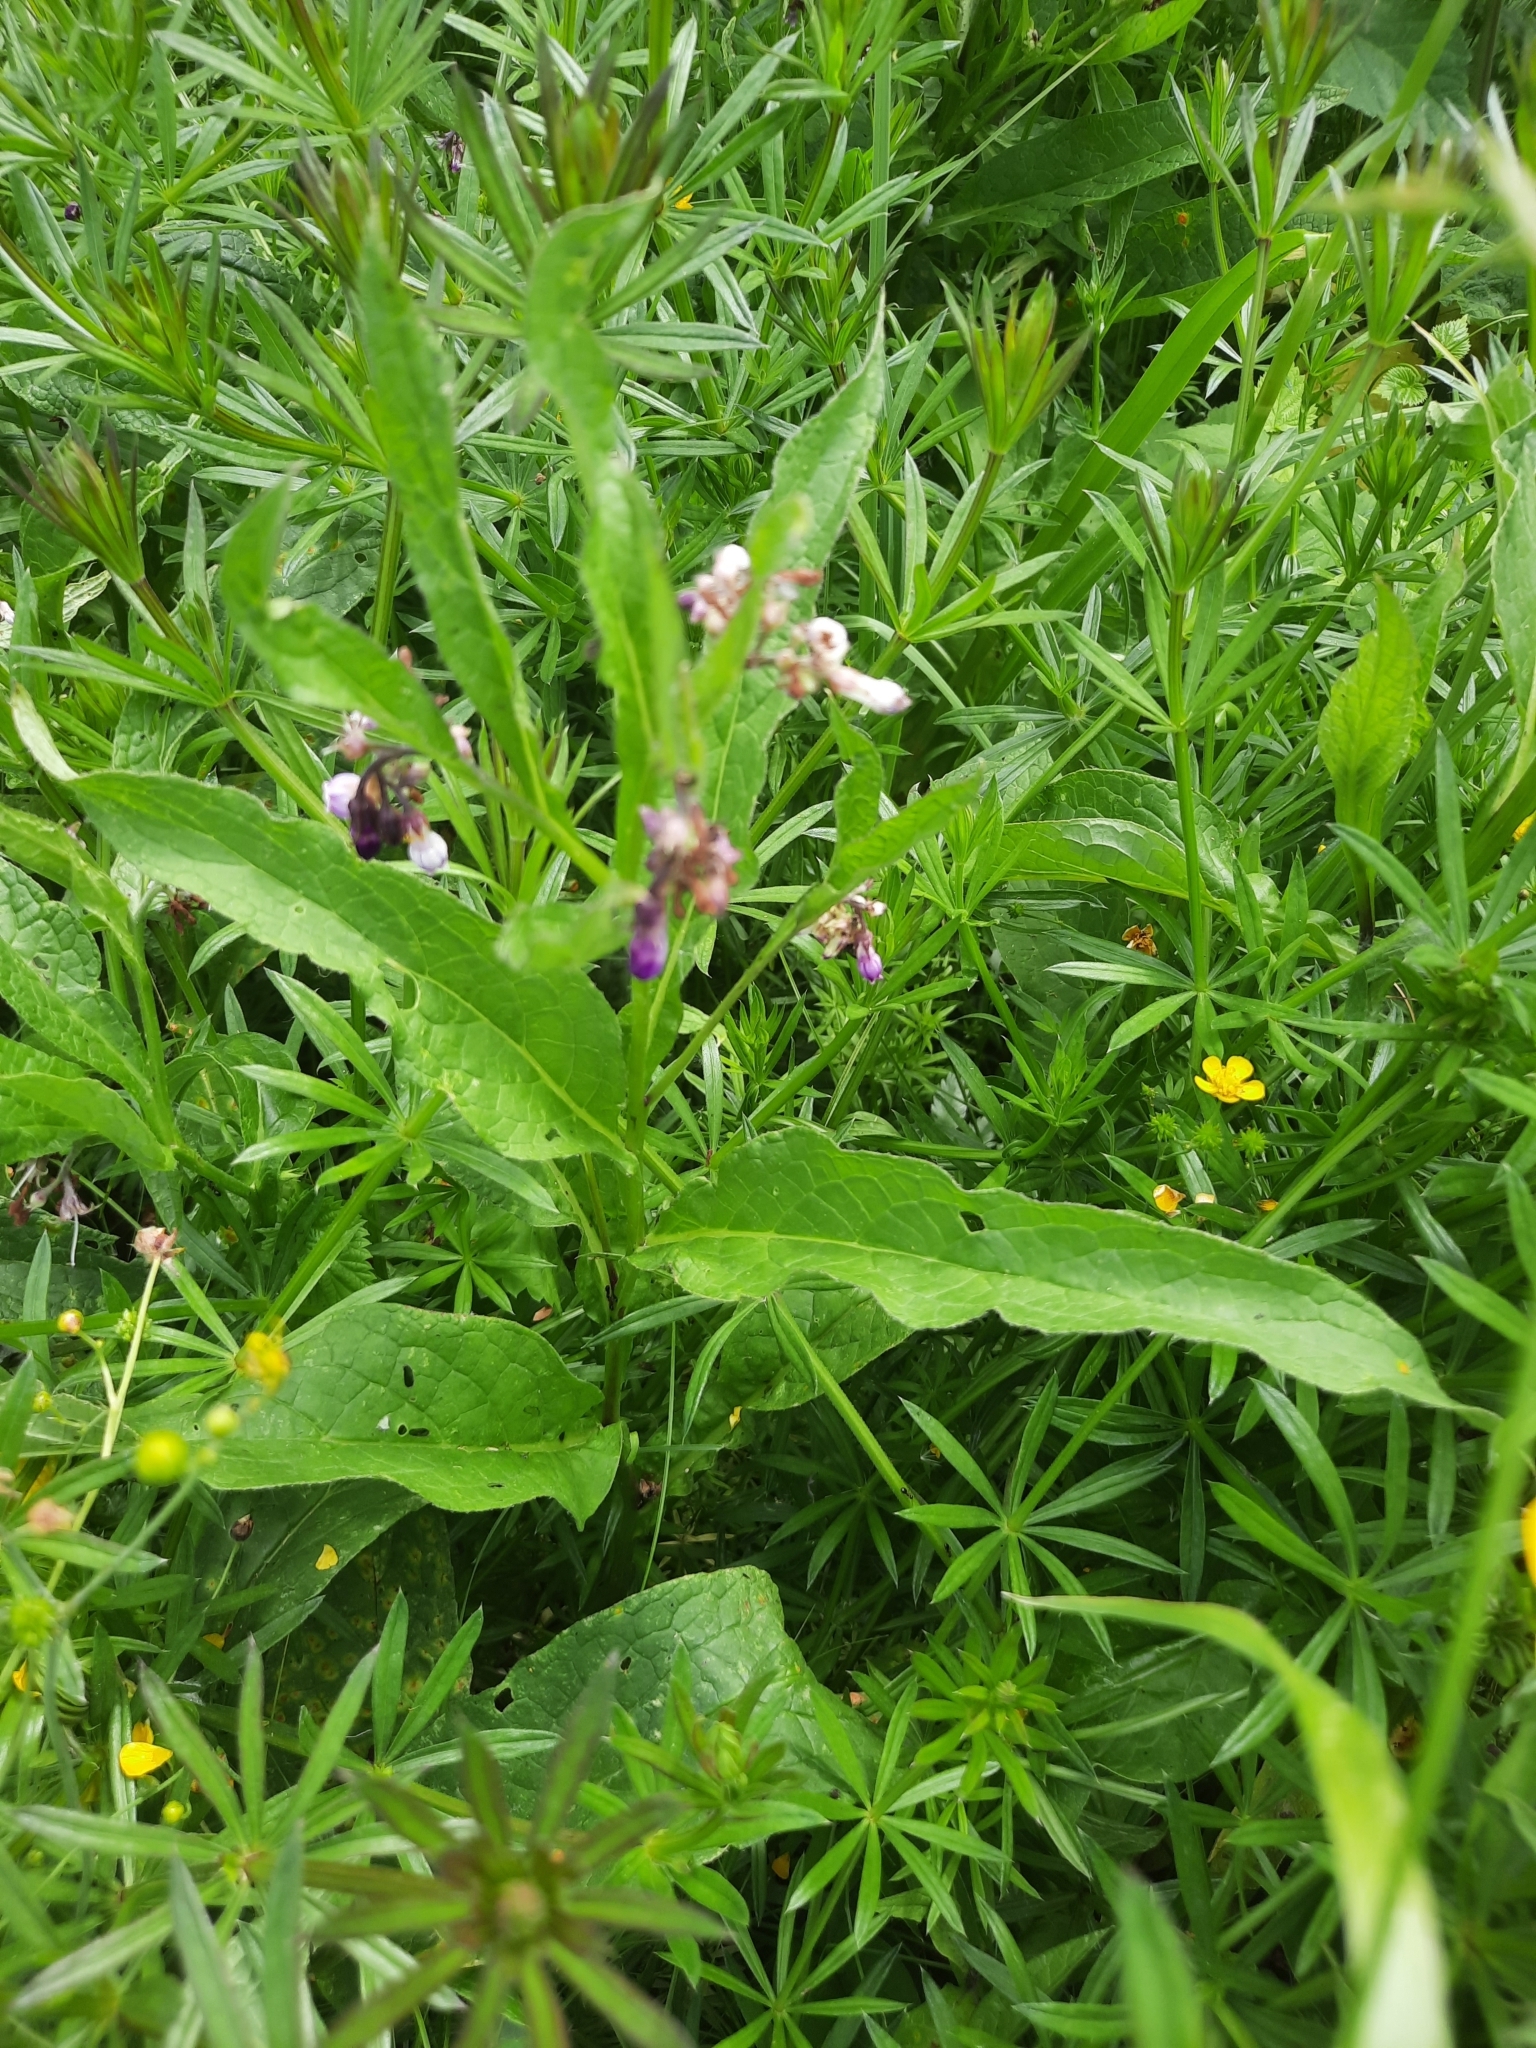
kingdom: Plantae
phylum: Tracheophyta
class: Magnoliopsida
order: Boraginales
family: Boraginaceae
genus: Symphytum
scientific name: Symphytum officinale
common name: Common comfrey
